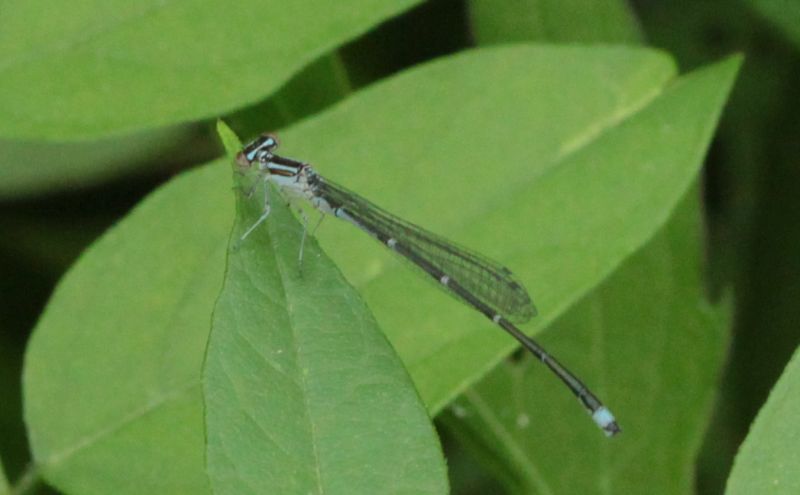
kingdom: Animalia
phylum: Arthropoda
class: Insecta
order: Odonata
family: Coenagrionidae
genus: Enallagma
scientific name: Enallagma exsulans
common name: Stream bluet
